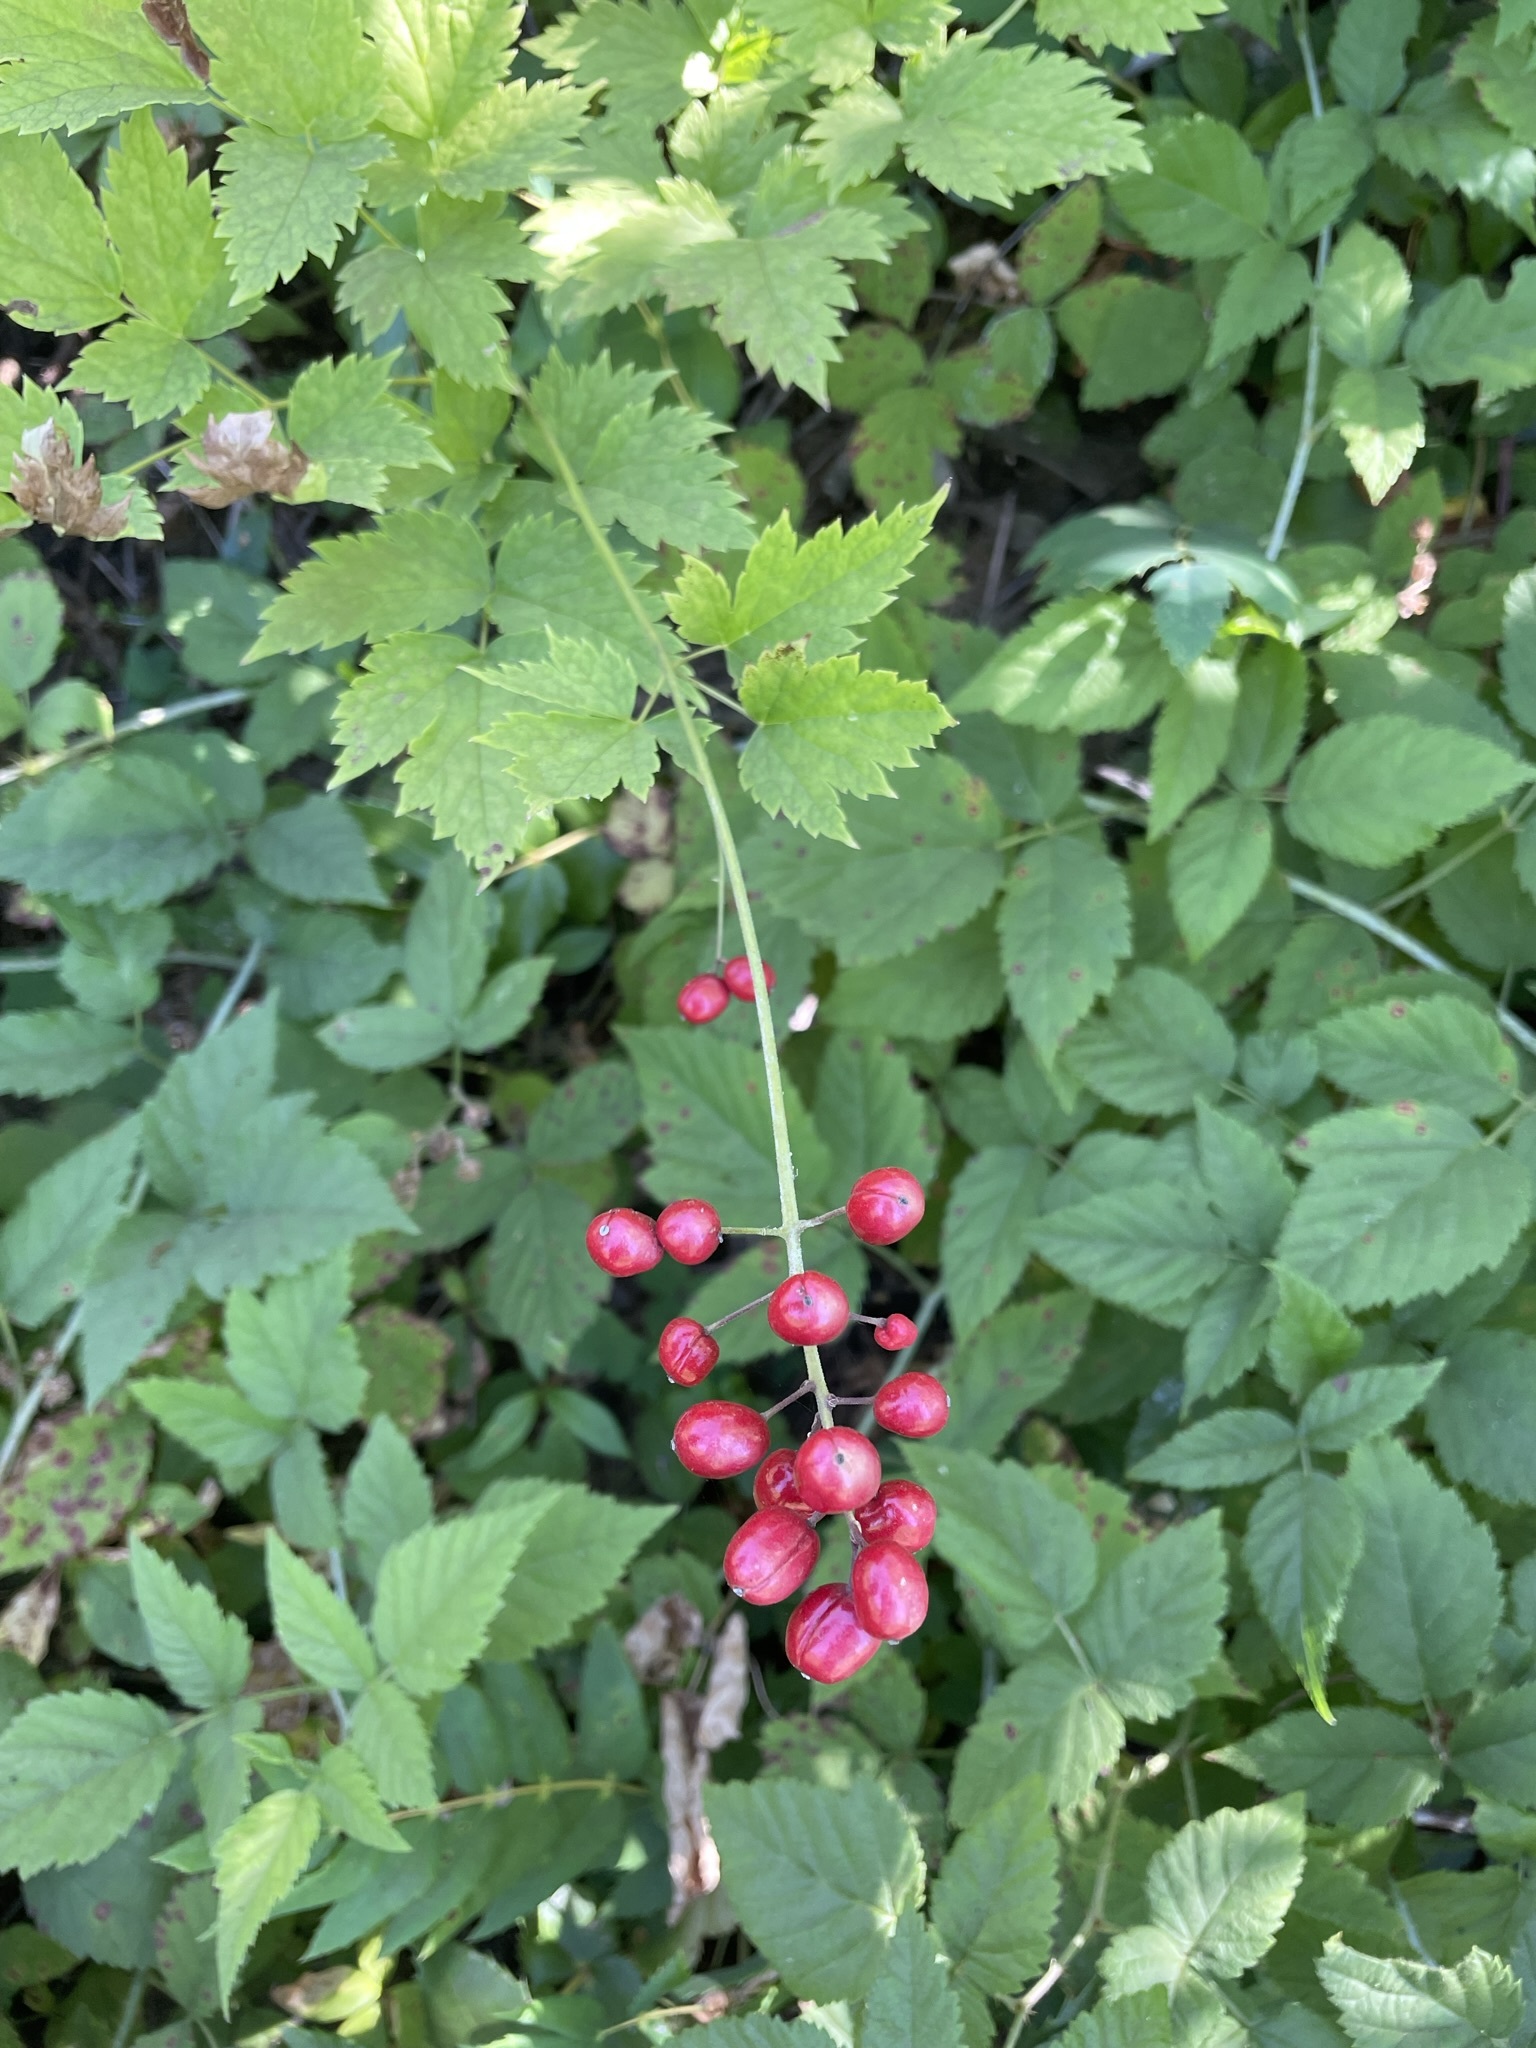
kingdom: Plantae
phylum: Tracheophyta
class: Magnoliopsida
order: Ranunculales
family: Ranunculaceae
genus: Actaea
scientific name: Actaea rubra
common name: Red baneberry
